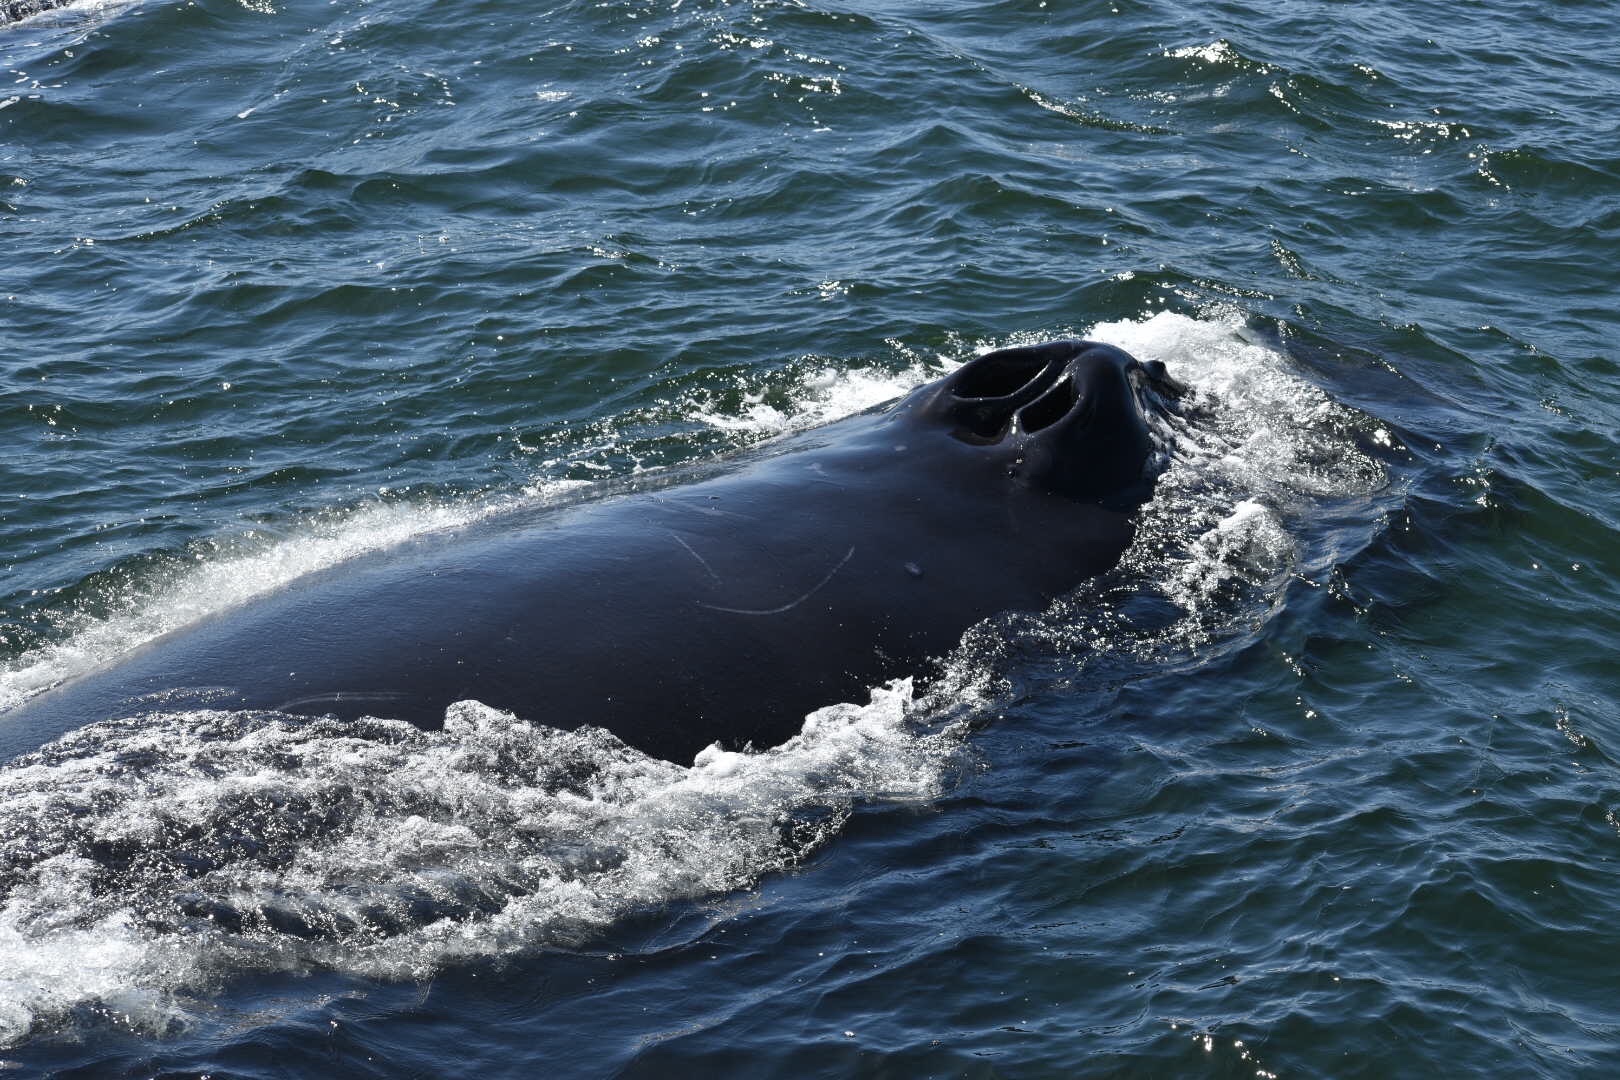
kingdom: Animalia
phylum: Chordata
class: Mammalia
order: Cetacea
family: Balaenopteridae
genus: Megaptera
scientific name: Megaptera novaeangliae
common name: Humpback whale
